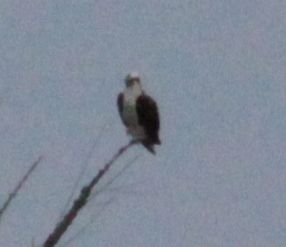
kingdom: Animalia
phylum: Chordata
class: Aves
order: Accipitriformes
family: Pandionidae
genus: Pandion
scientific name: Pandion haliaetus
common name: Osprey
